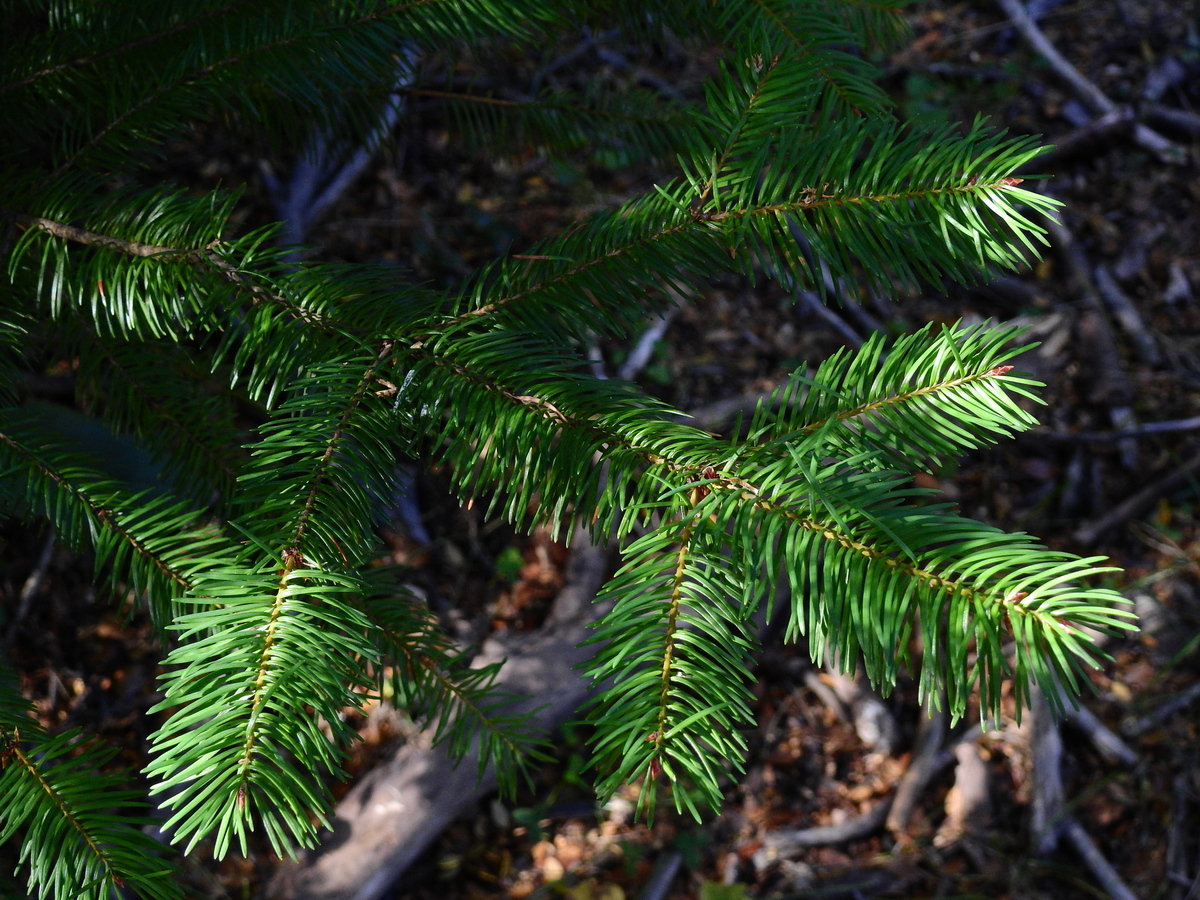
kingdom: Plantae
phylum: Tracheophyta
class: Pinopsida
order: Pinales
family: Pinaceae
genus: Pseudotsuga
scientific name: Pseudotsuga menziesii
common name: Douglas fir
